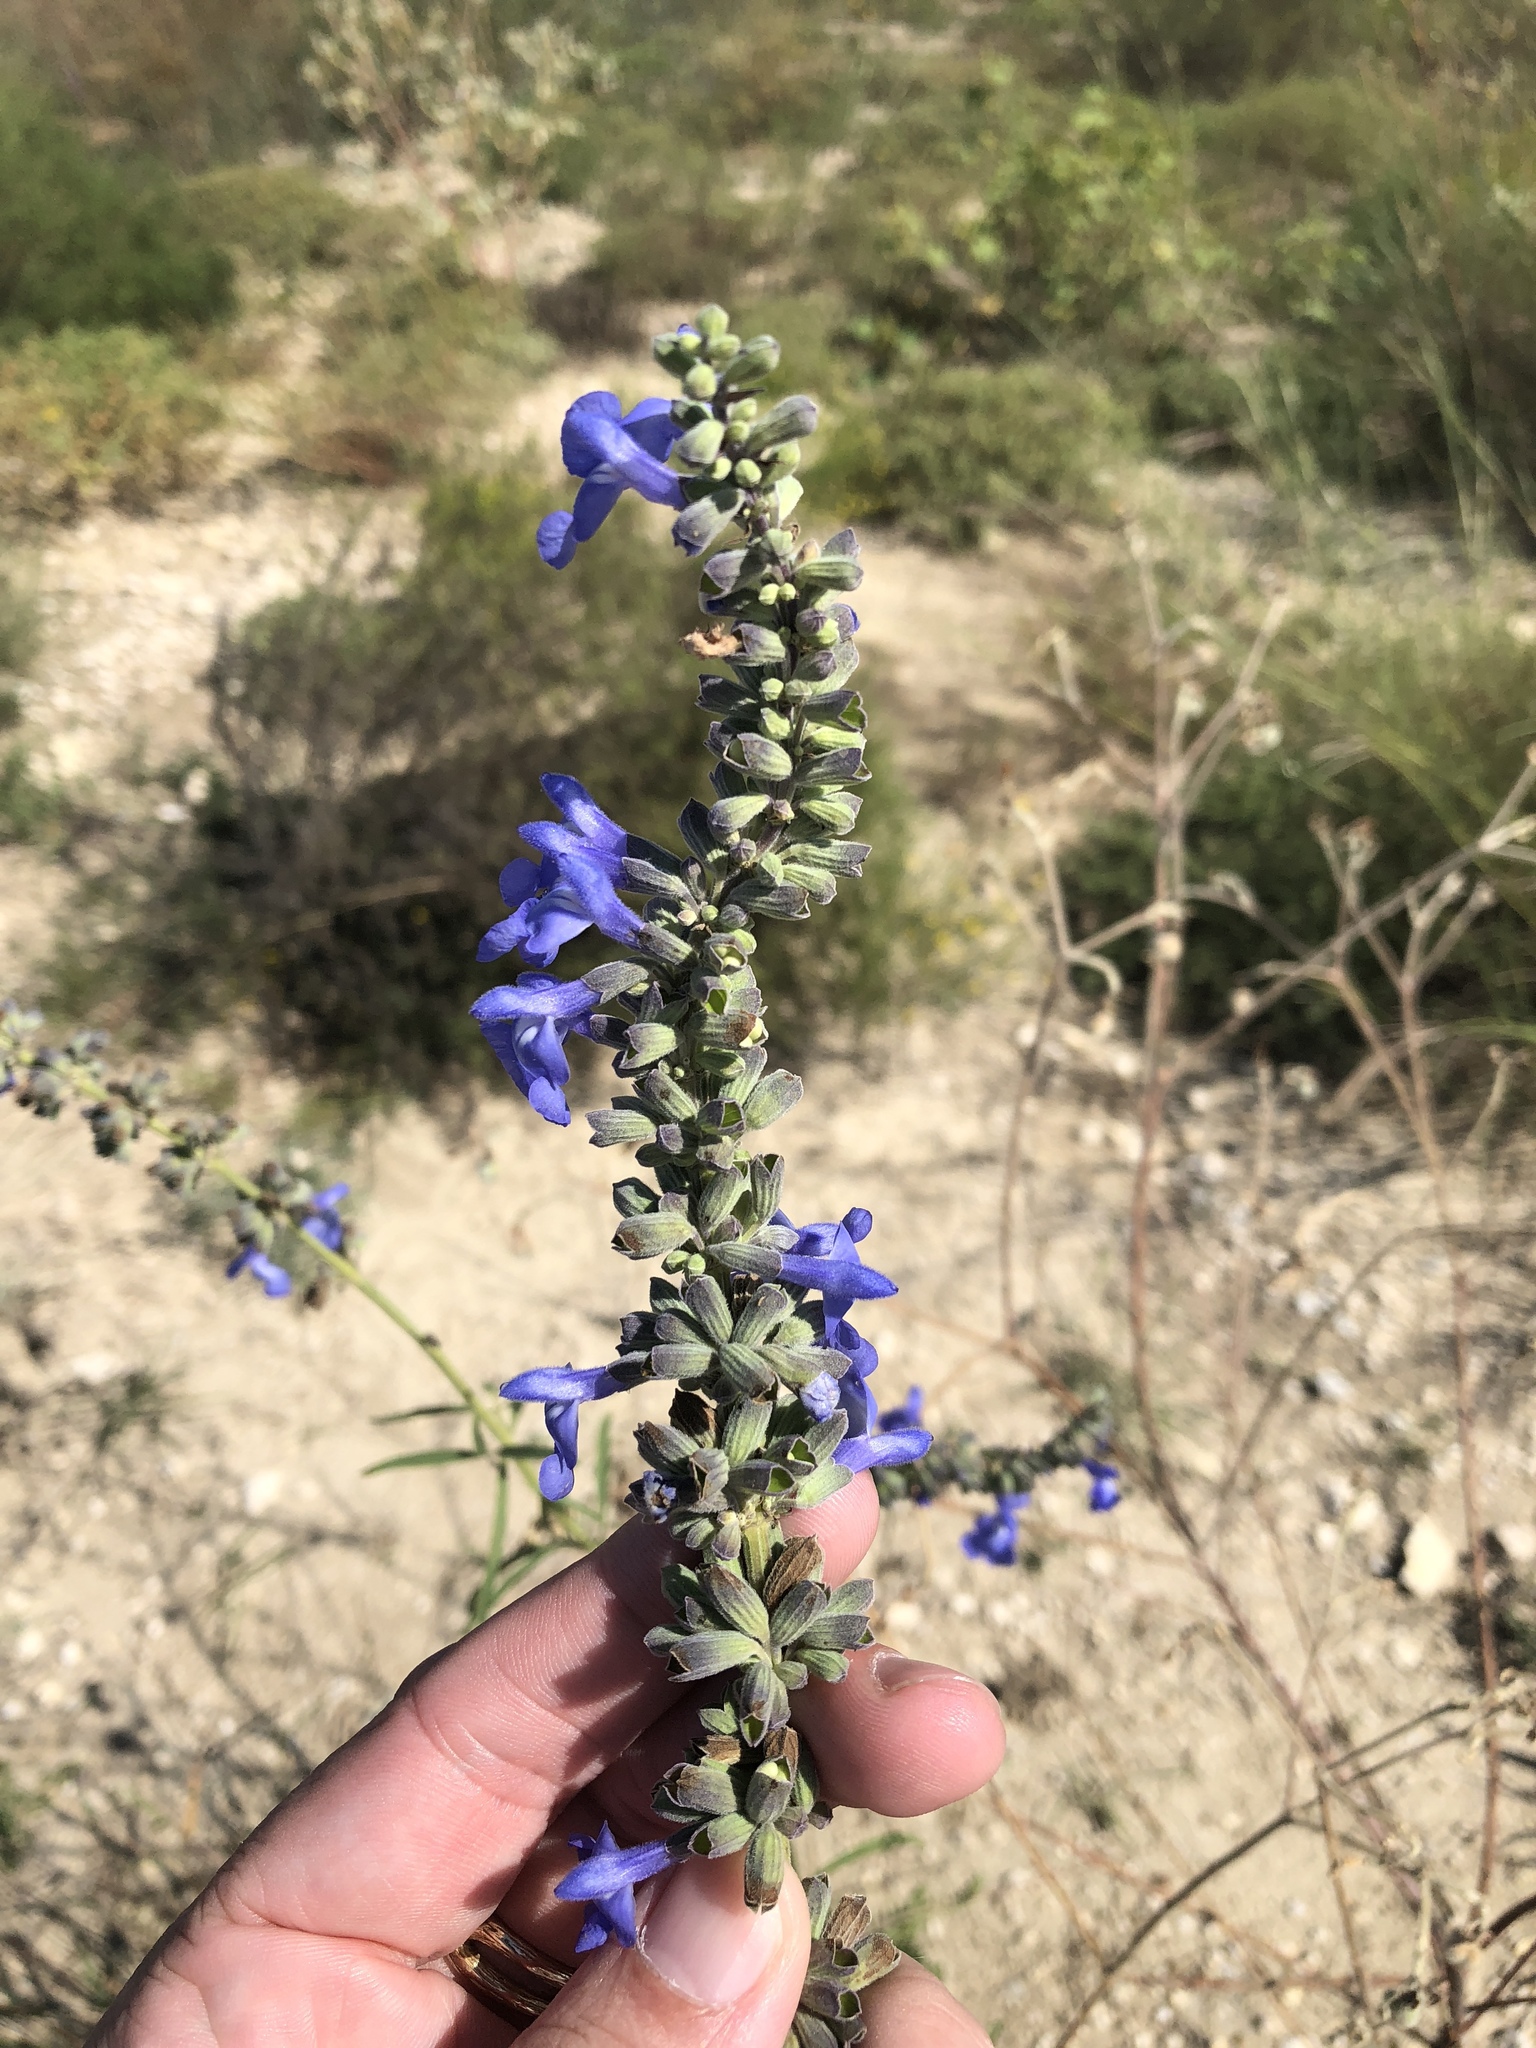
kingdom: Plantae
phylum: Tracheophyta
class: Magnoliopsida
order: Lamiales
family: Lamiaceae
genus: Salvia
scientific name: Salvia azurea
